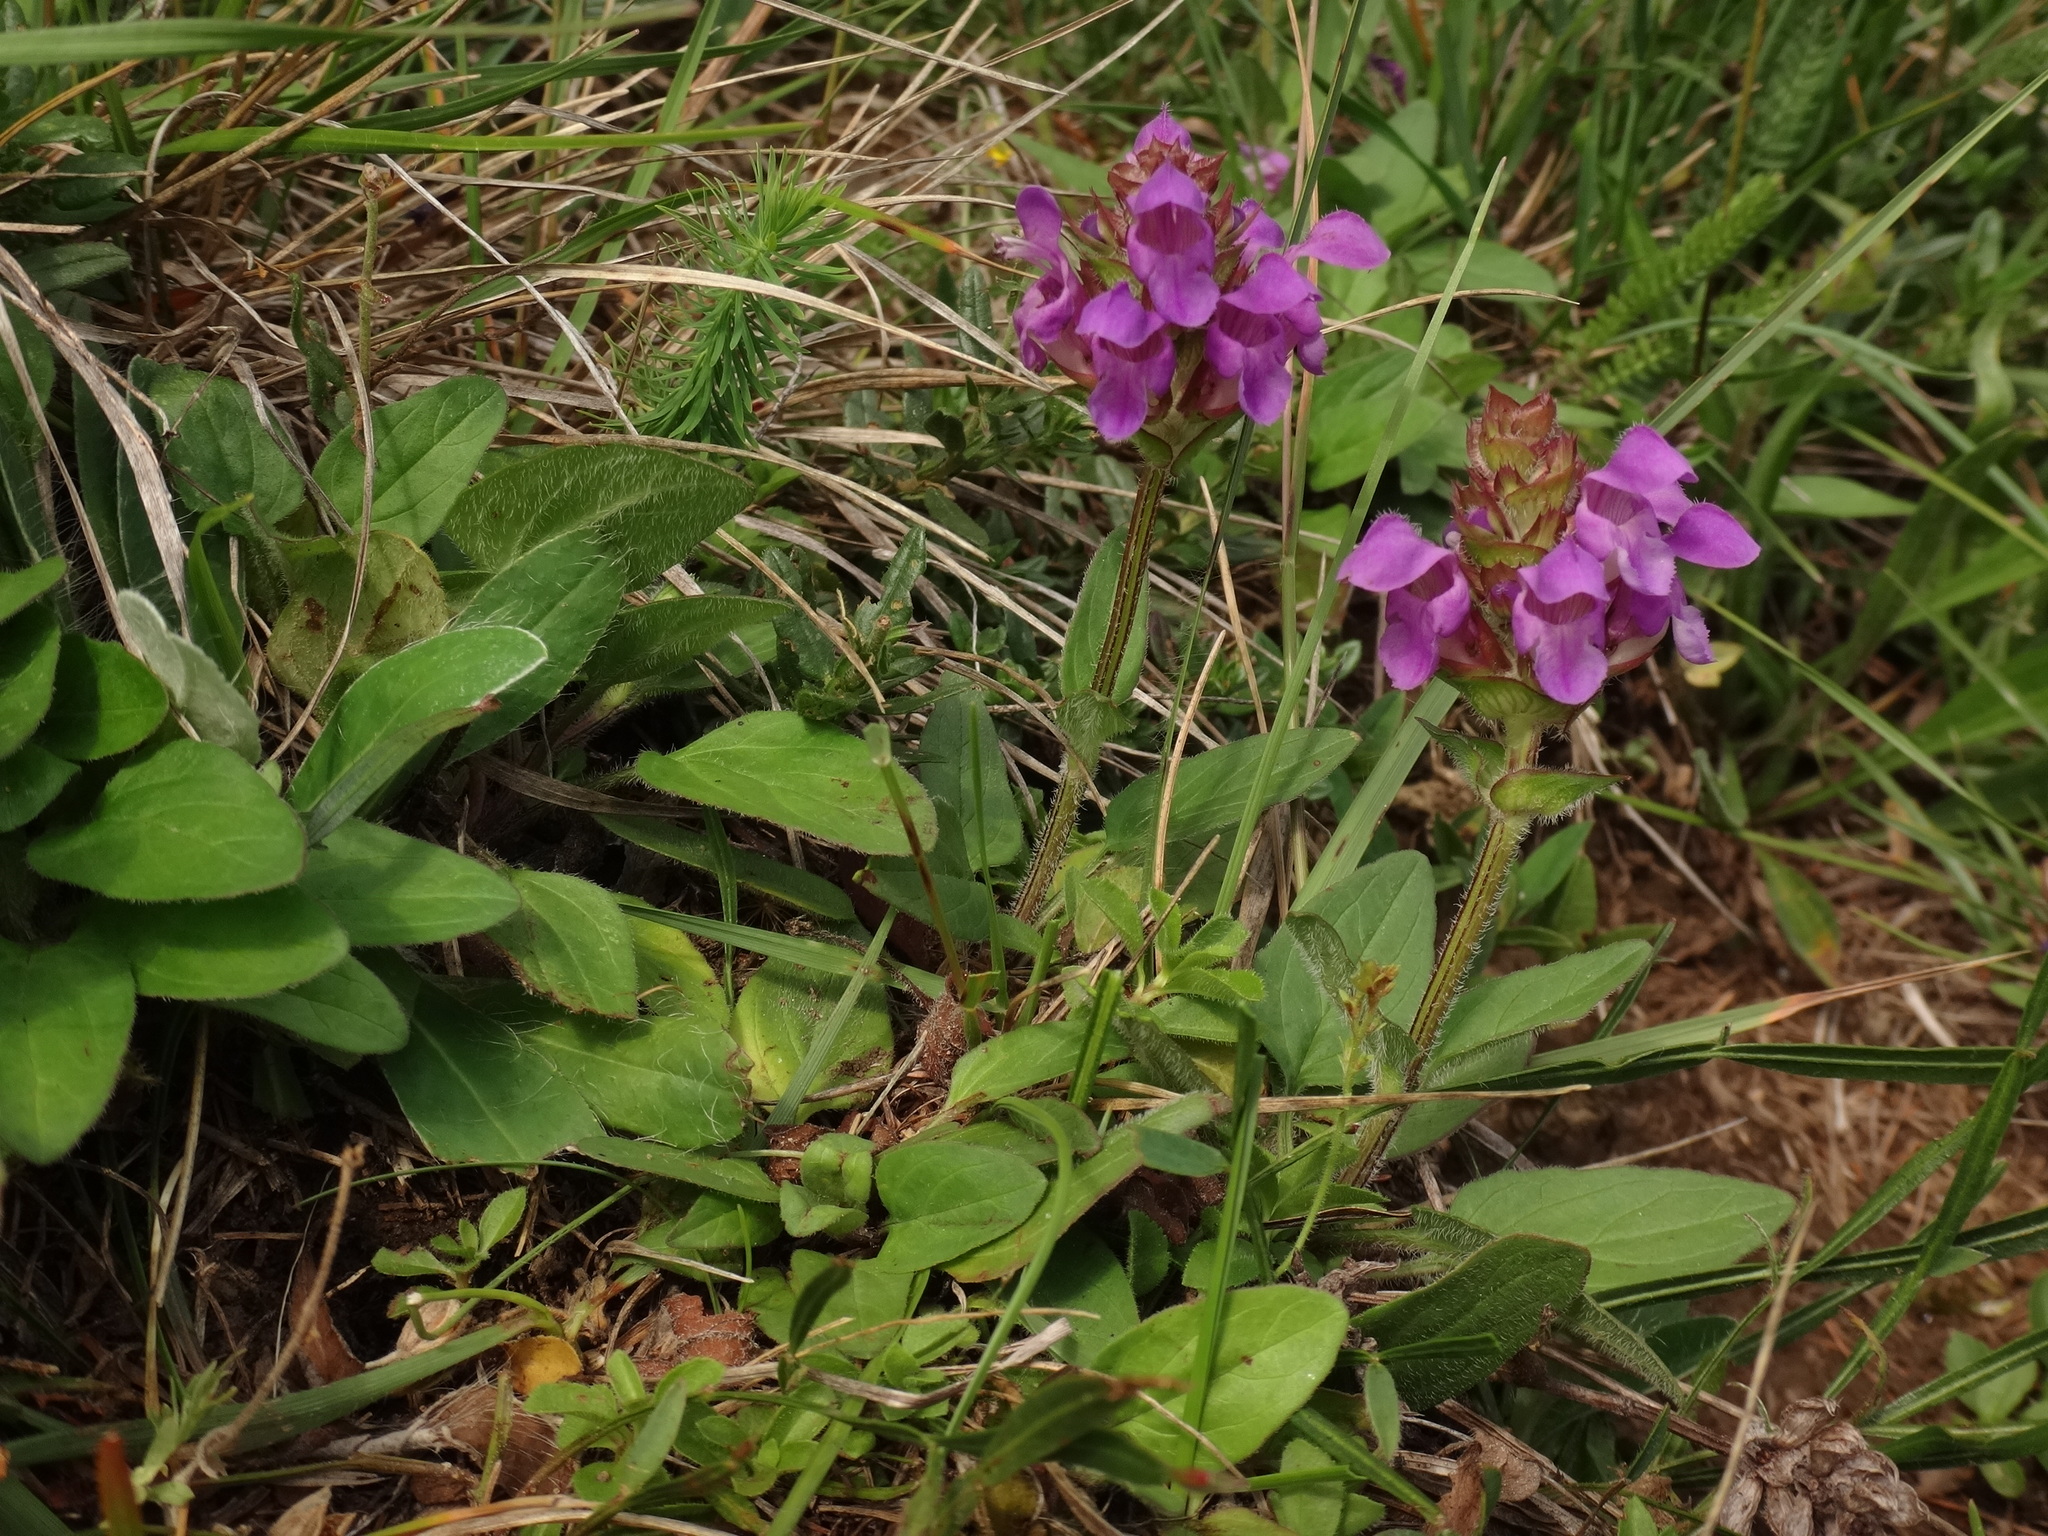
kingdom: Plantae
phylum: Tracheophyta
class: Magnoliopsida
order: Lamiales
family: Lamiaceae
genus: Prunella
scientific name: Prunella grandiflora
